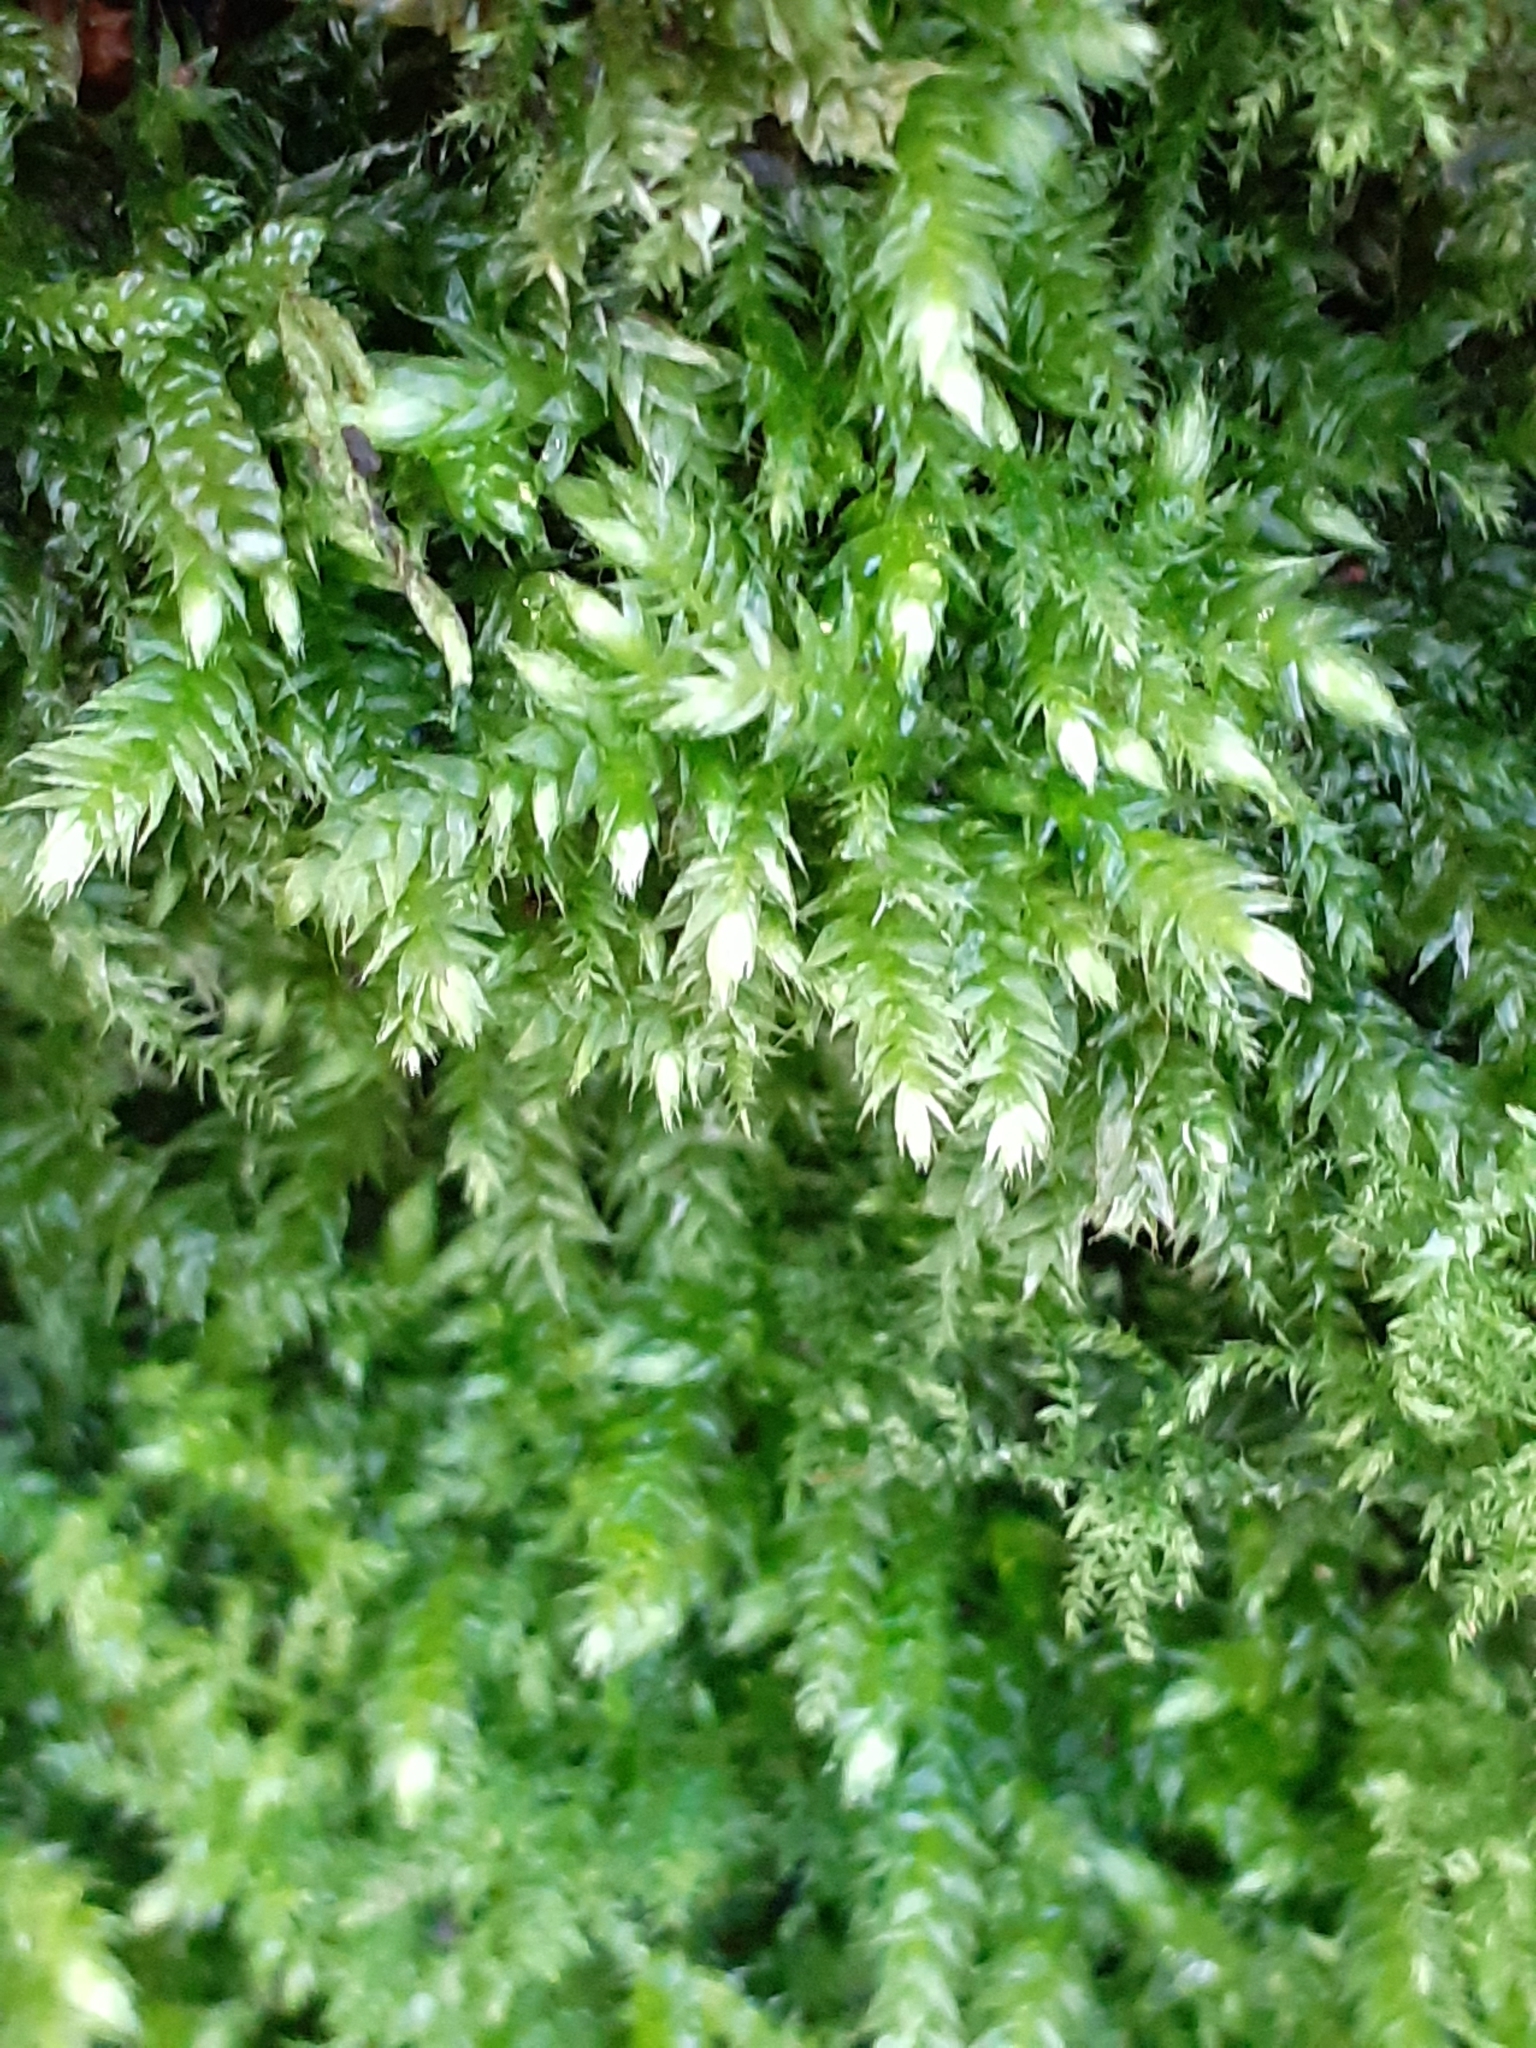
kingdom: Plantae
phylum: Bryophyta
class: Bryopsida
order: Hypnales
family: Brachytheciaceae
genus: Brachythecium
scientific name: Brachythecium rutabulum
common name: Rough-stalked feather-moss
